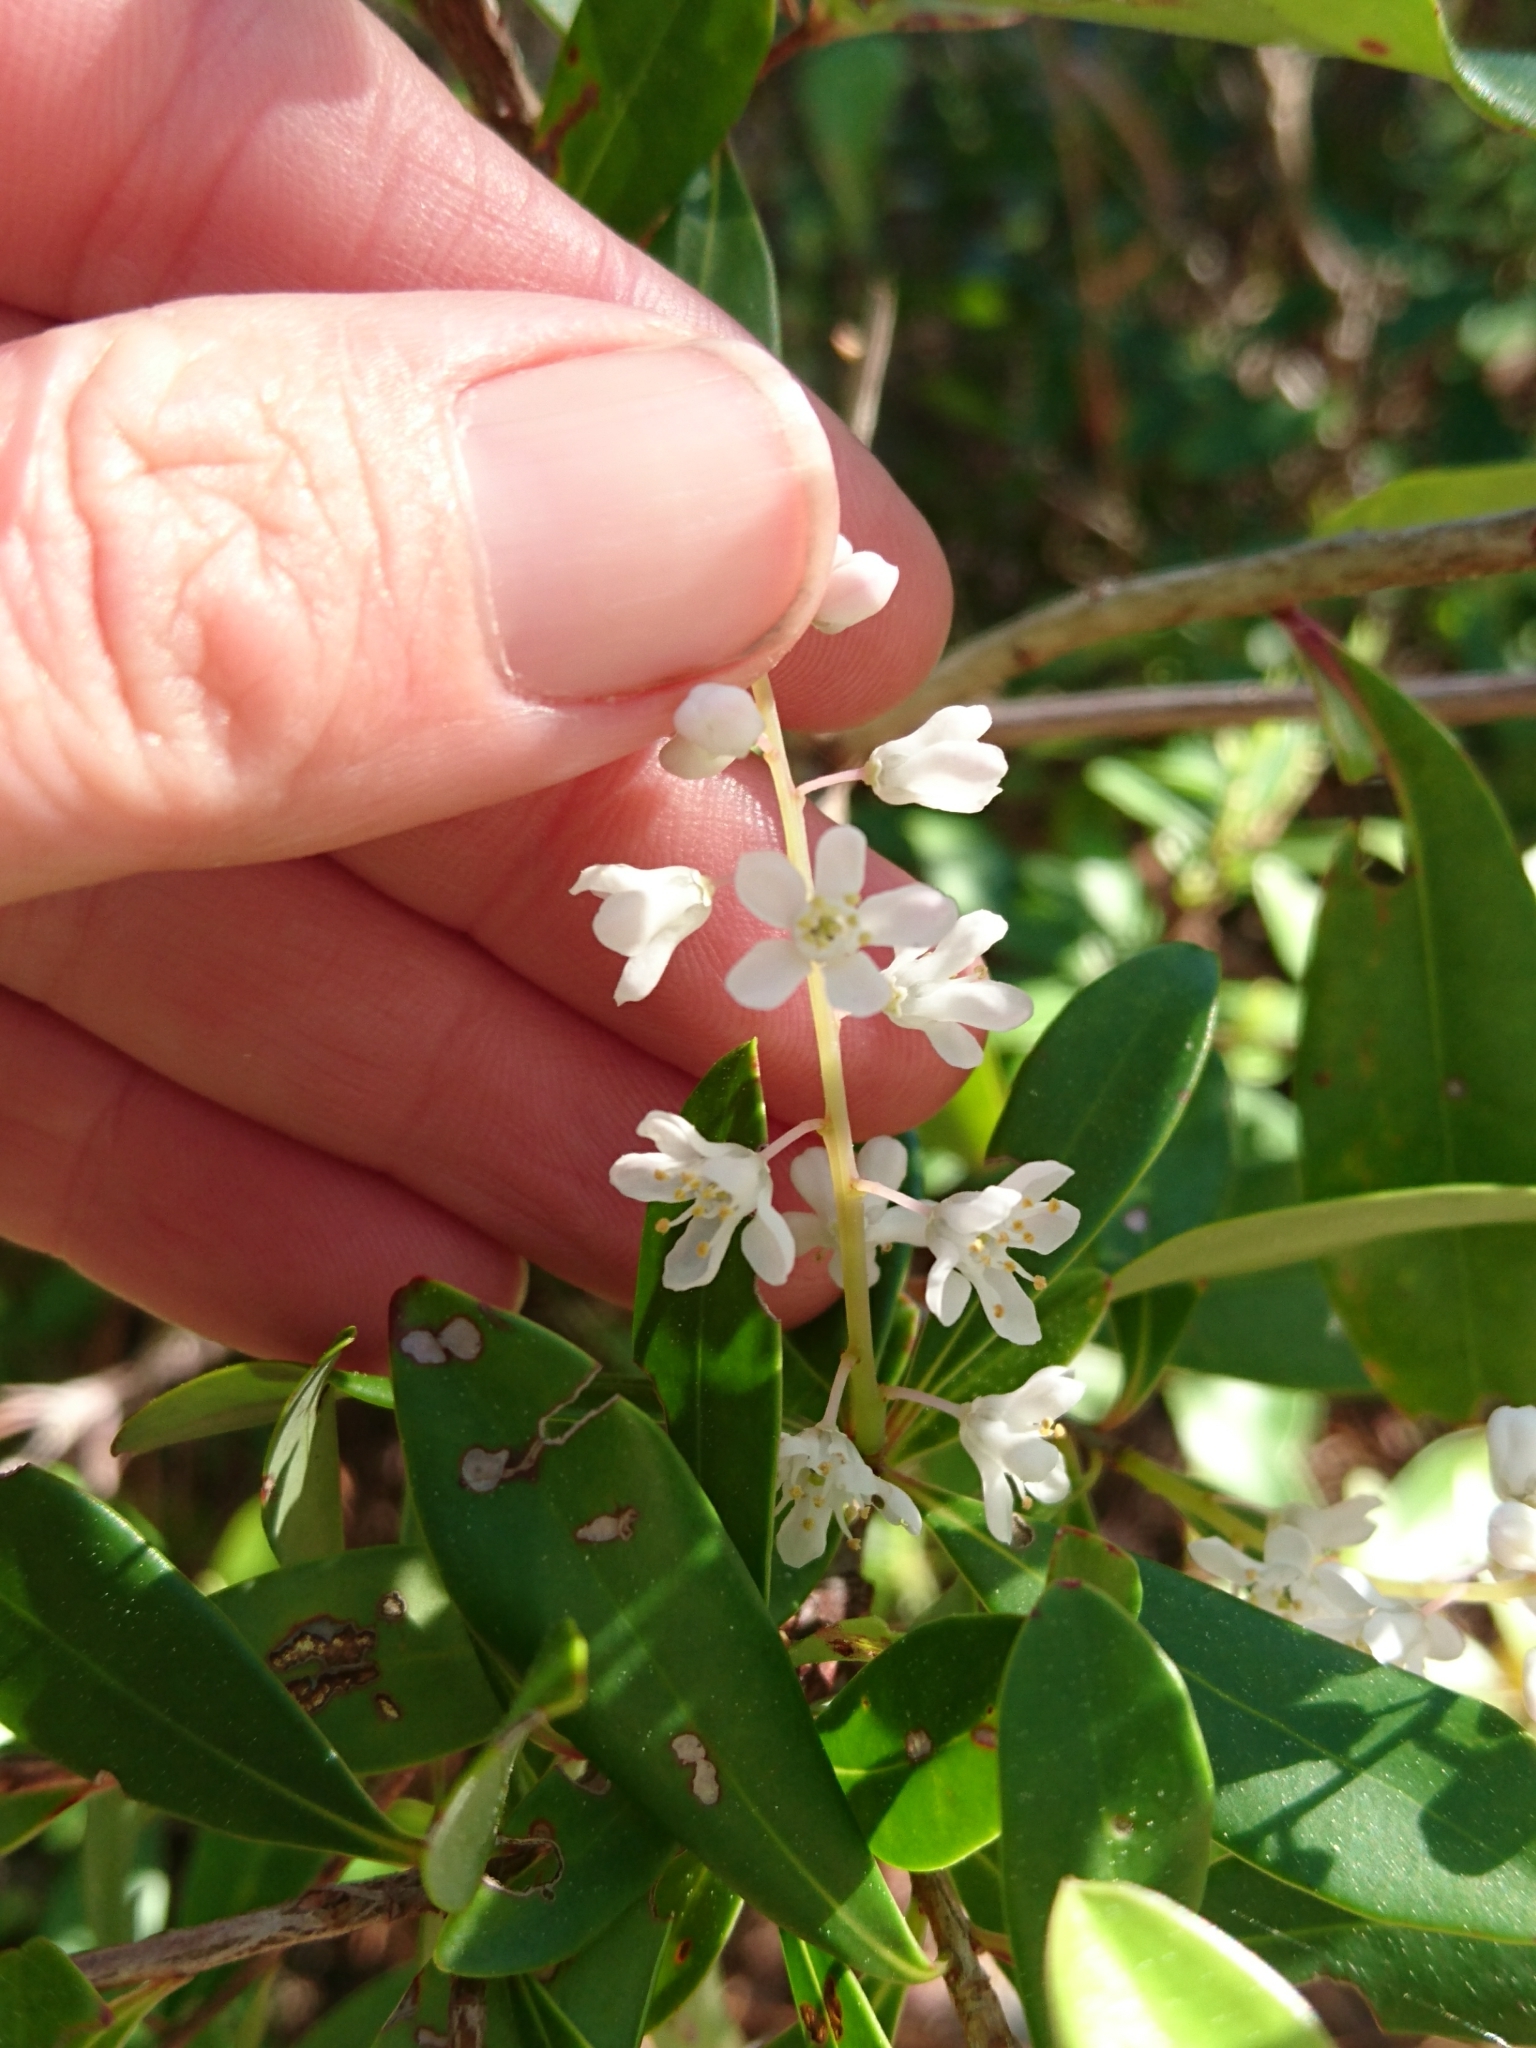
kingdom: Plantae
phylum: Tracheophyta
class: Magnoliopsida
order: Ericales
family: Cyrillaceae
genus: Cliftonia
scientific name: Cliftonia monophylla
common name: Titi
